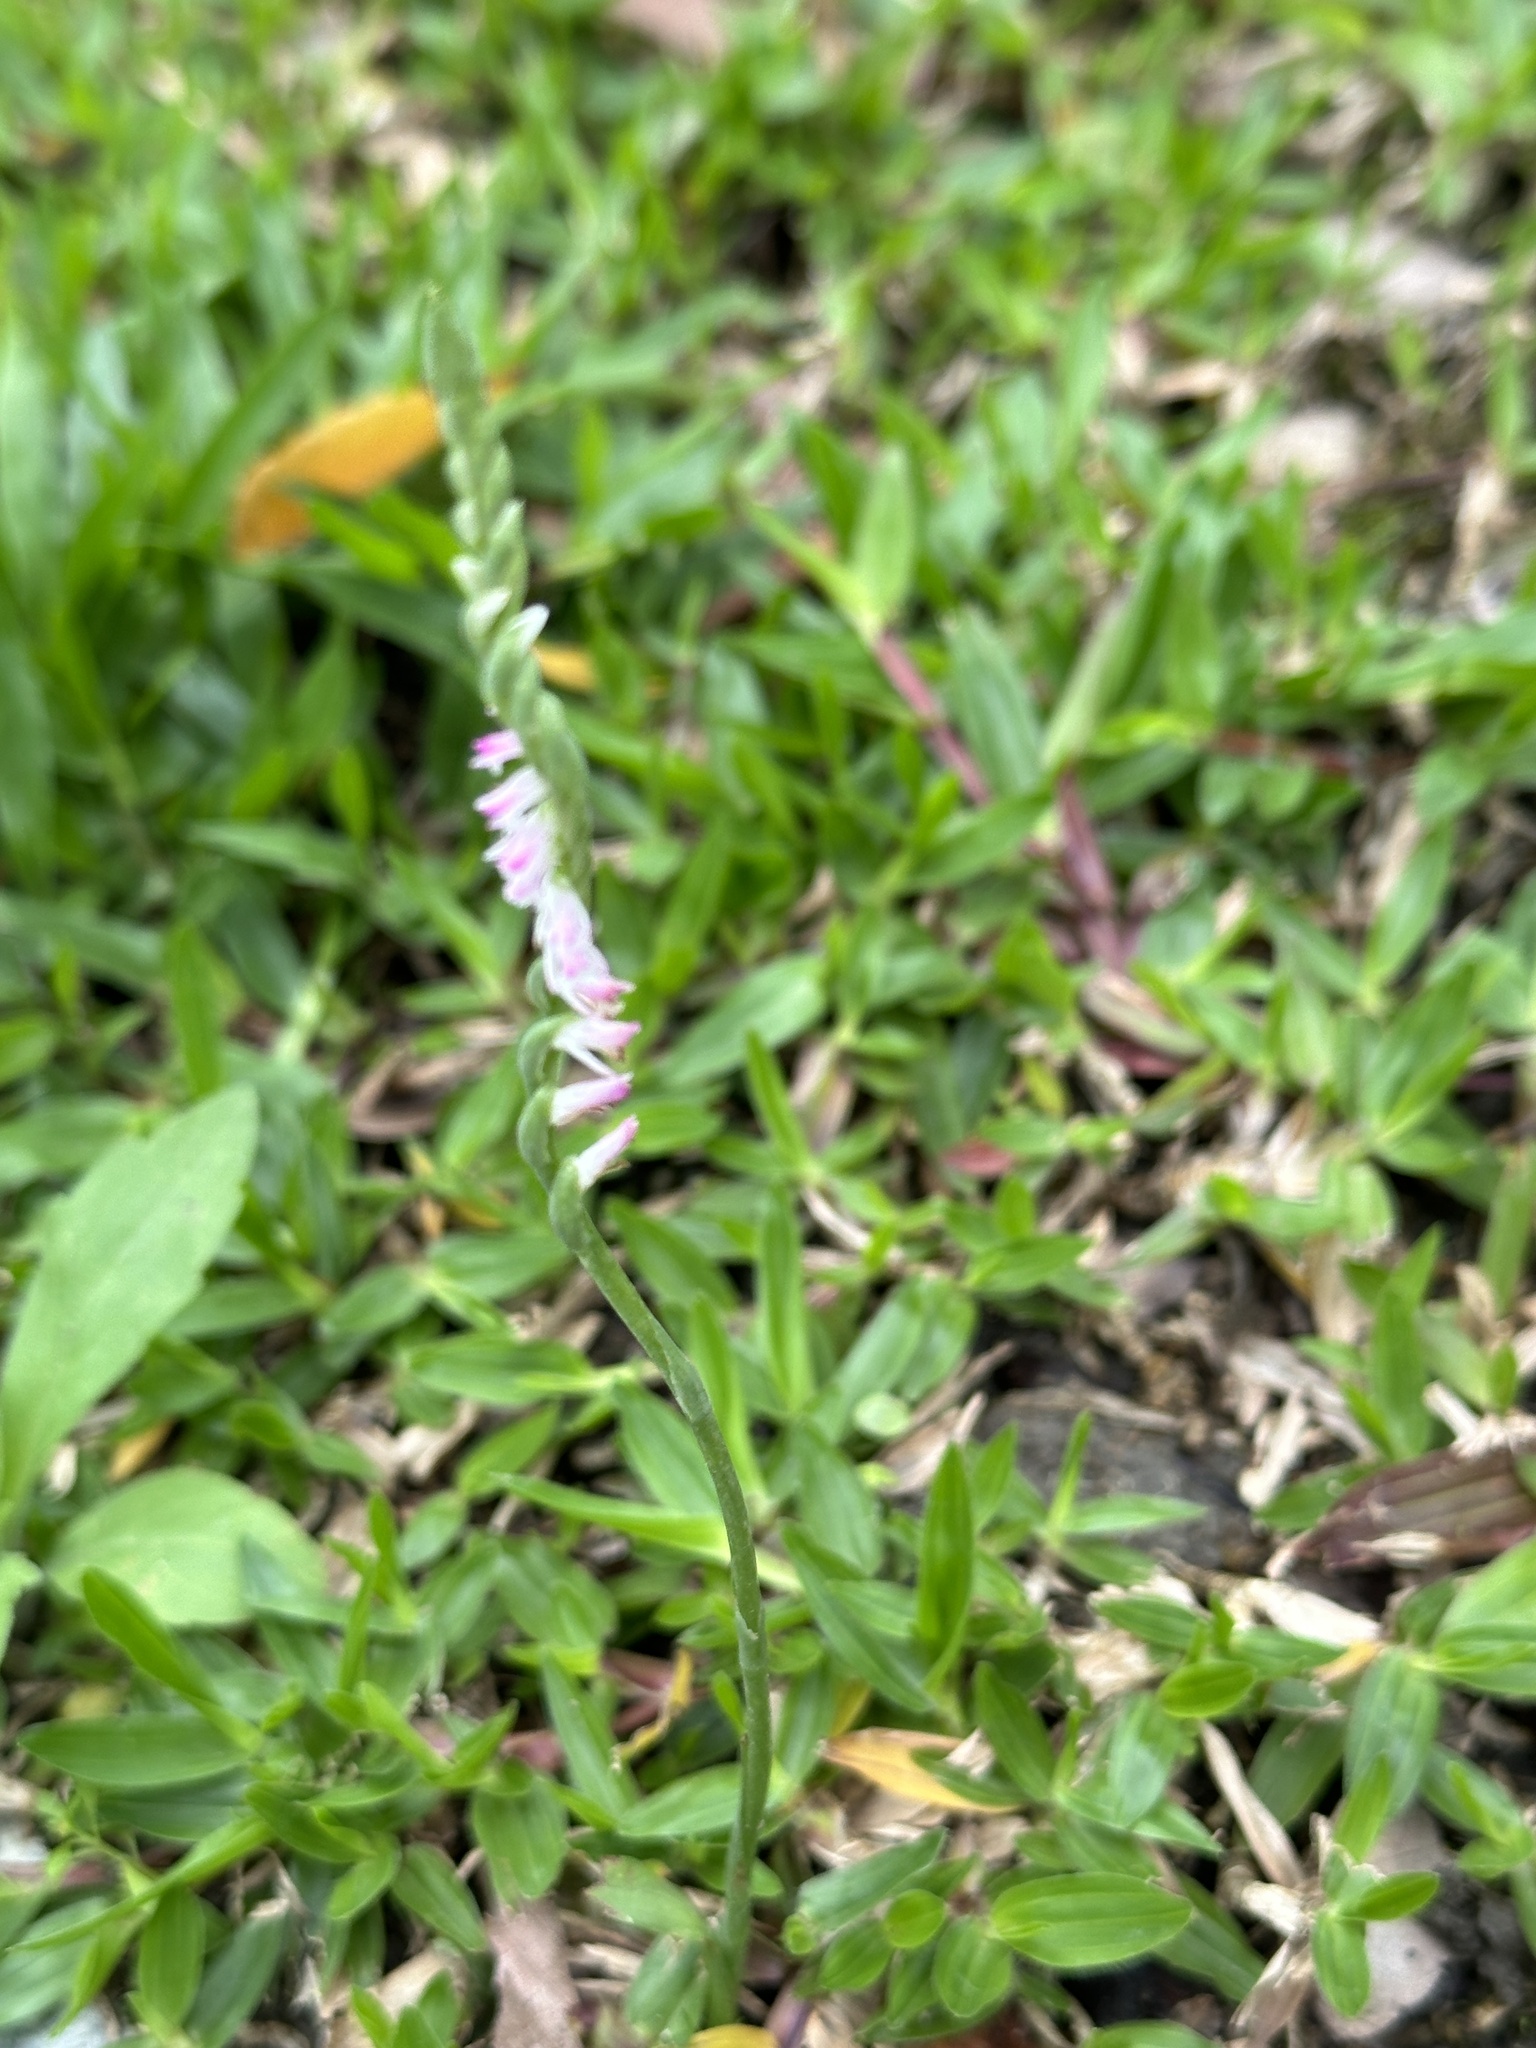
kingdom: Plantae
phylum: Tracheophyta
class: Liliopsida
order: Asparagales
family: Orchidaceae
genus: Spiranthes
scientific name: Spiranthes sinensis
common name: Chinese spiranthes
